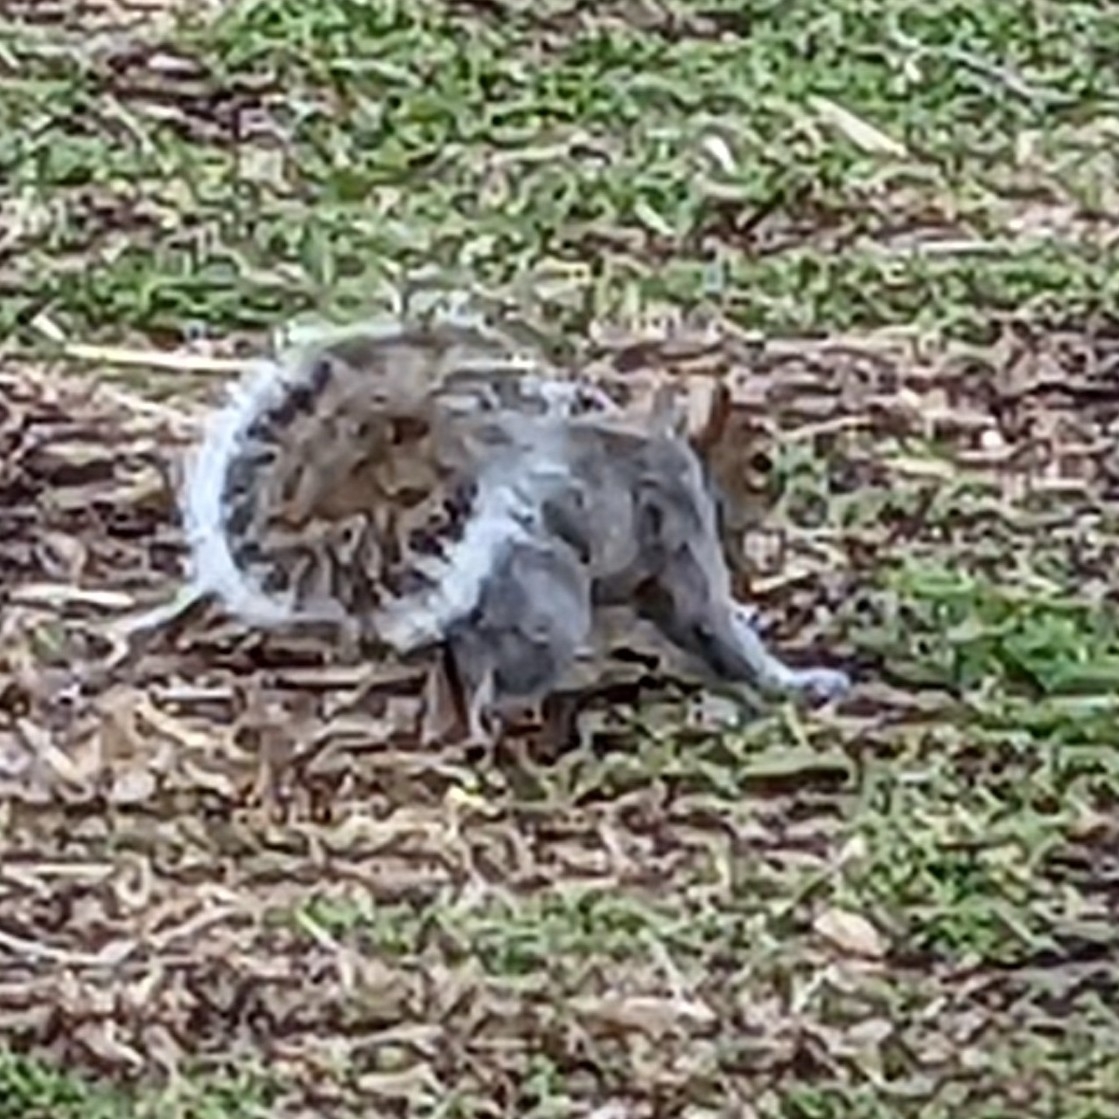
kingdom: Animalia
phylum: Chordata
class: Mammalia
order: Rodentia
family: Sciuridae
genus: Sciurus
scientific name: Sciurus carolinensis
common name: Eastern gray squirrel
